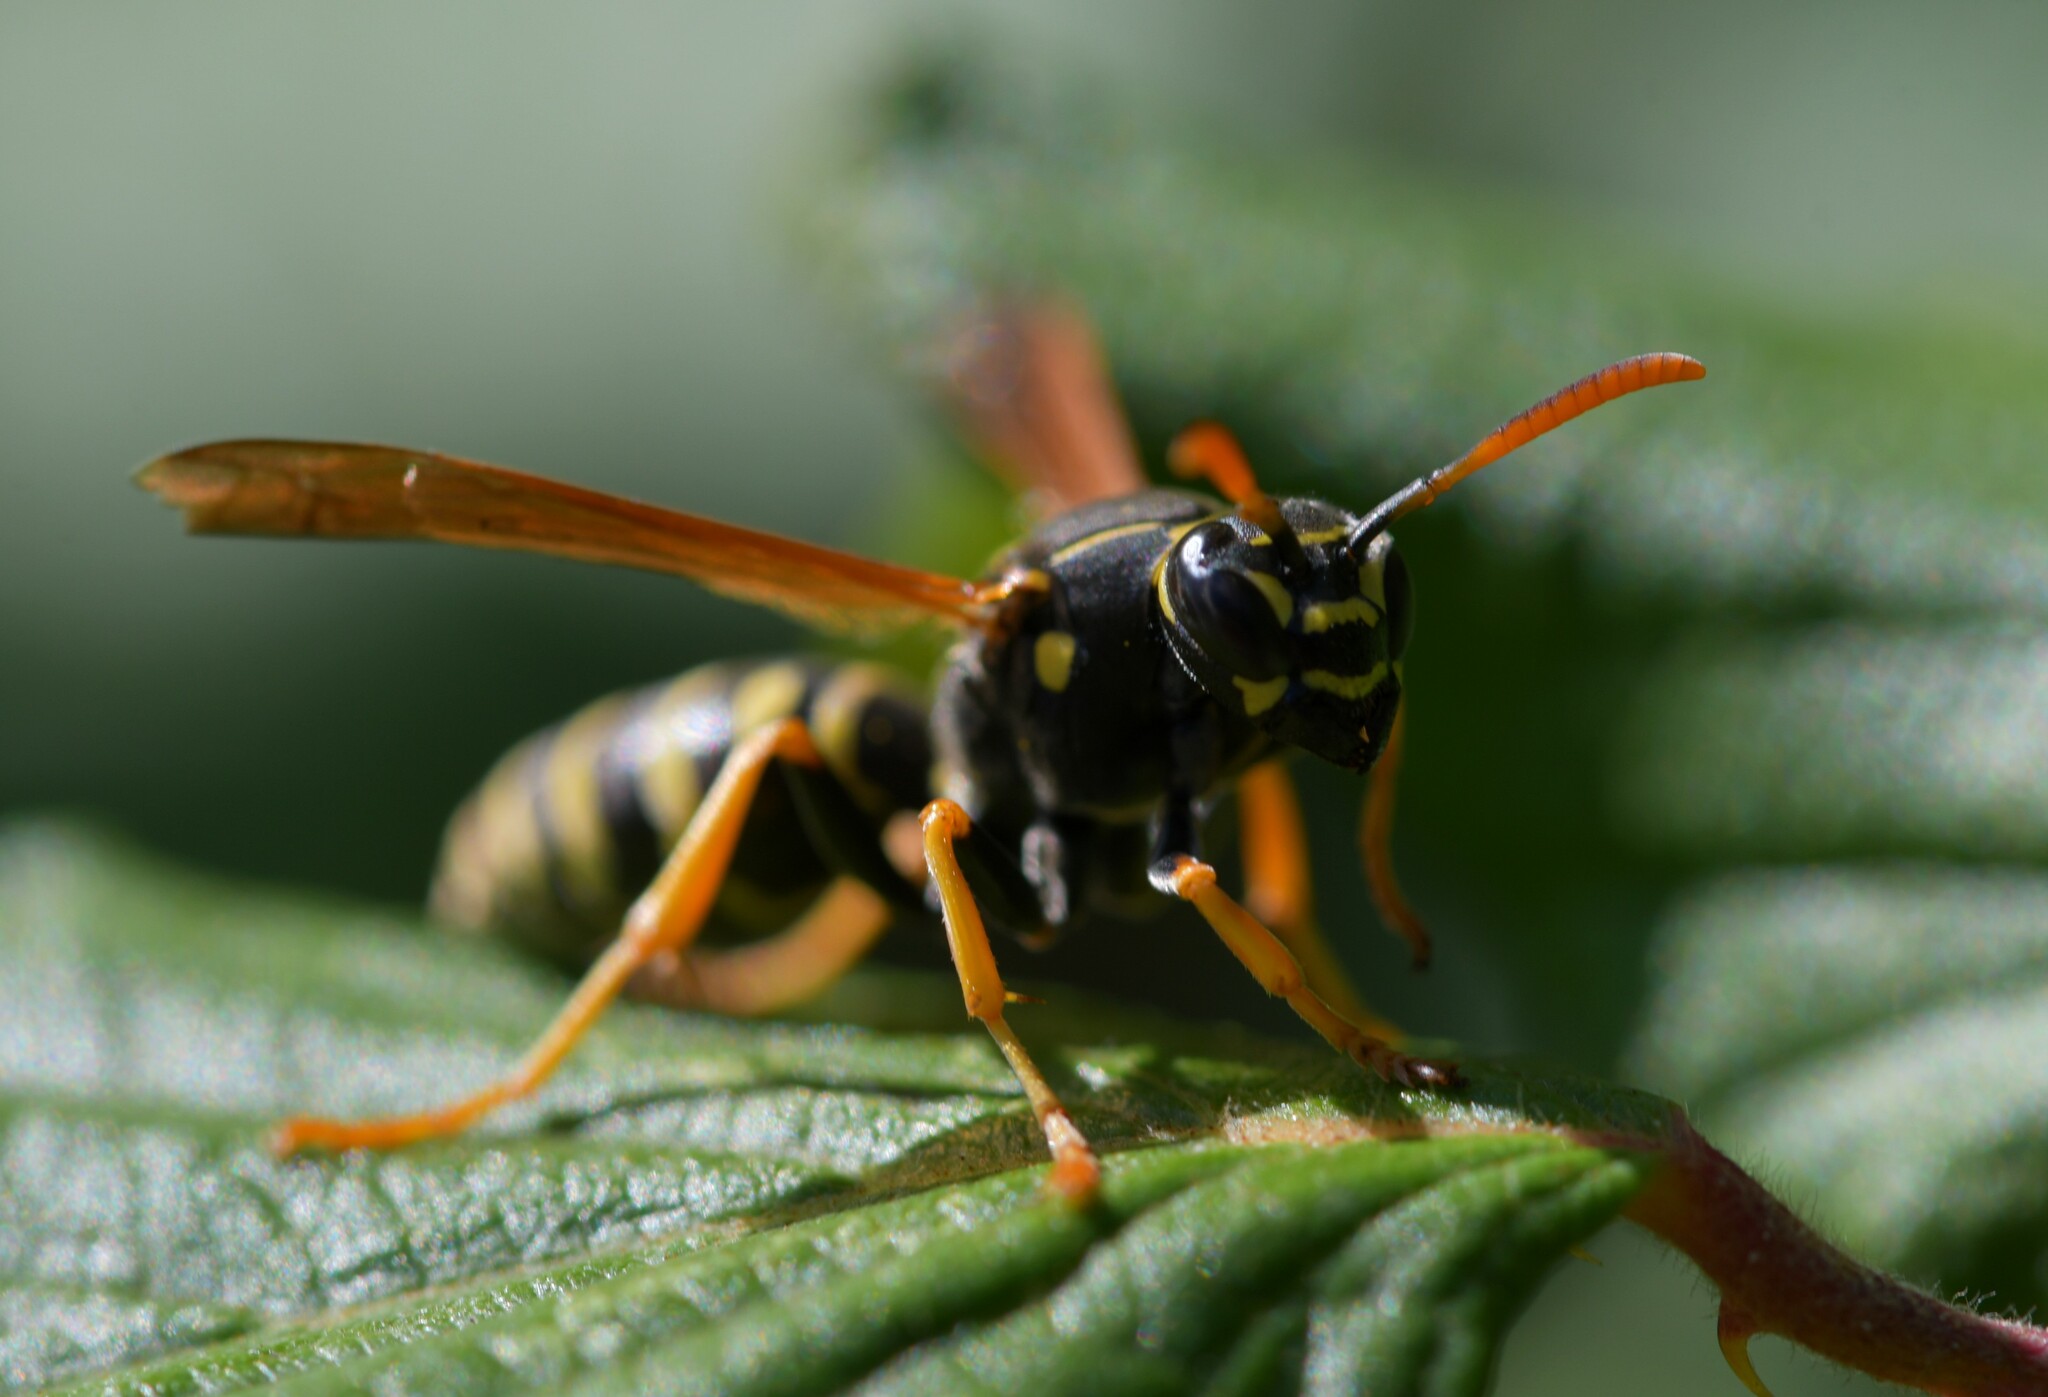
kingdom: Animalia
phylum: Arthropoda
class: Insecta
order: Hymenoptera
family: Eumenidae
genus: Polistes
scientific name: Polistes nimpha
